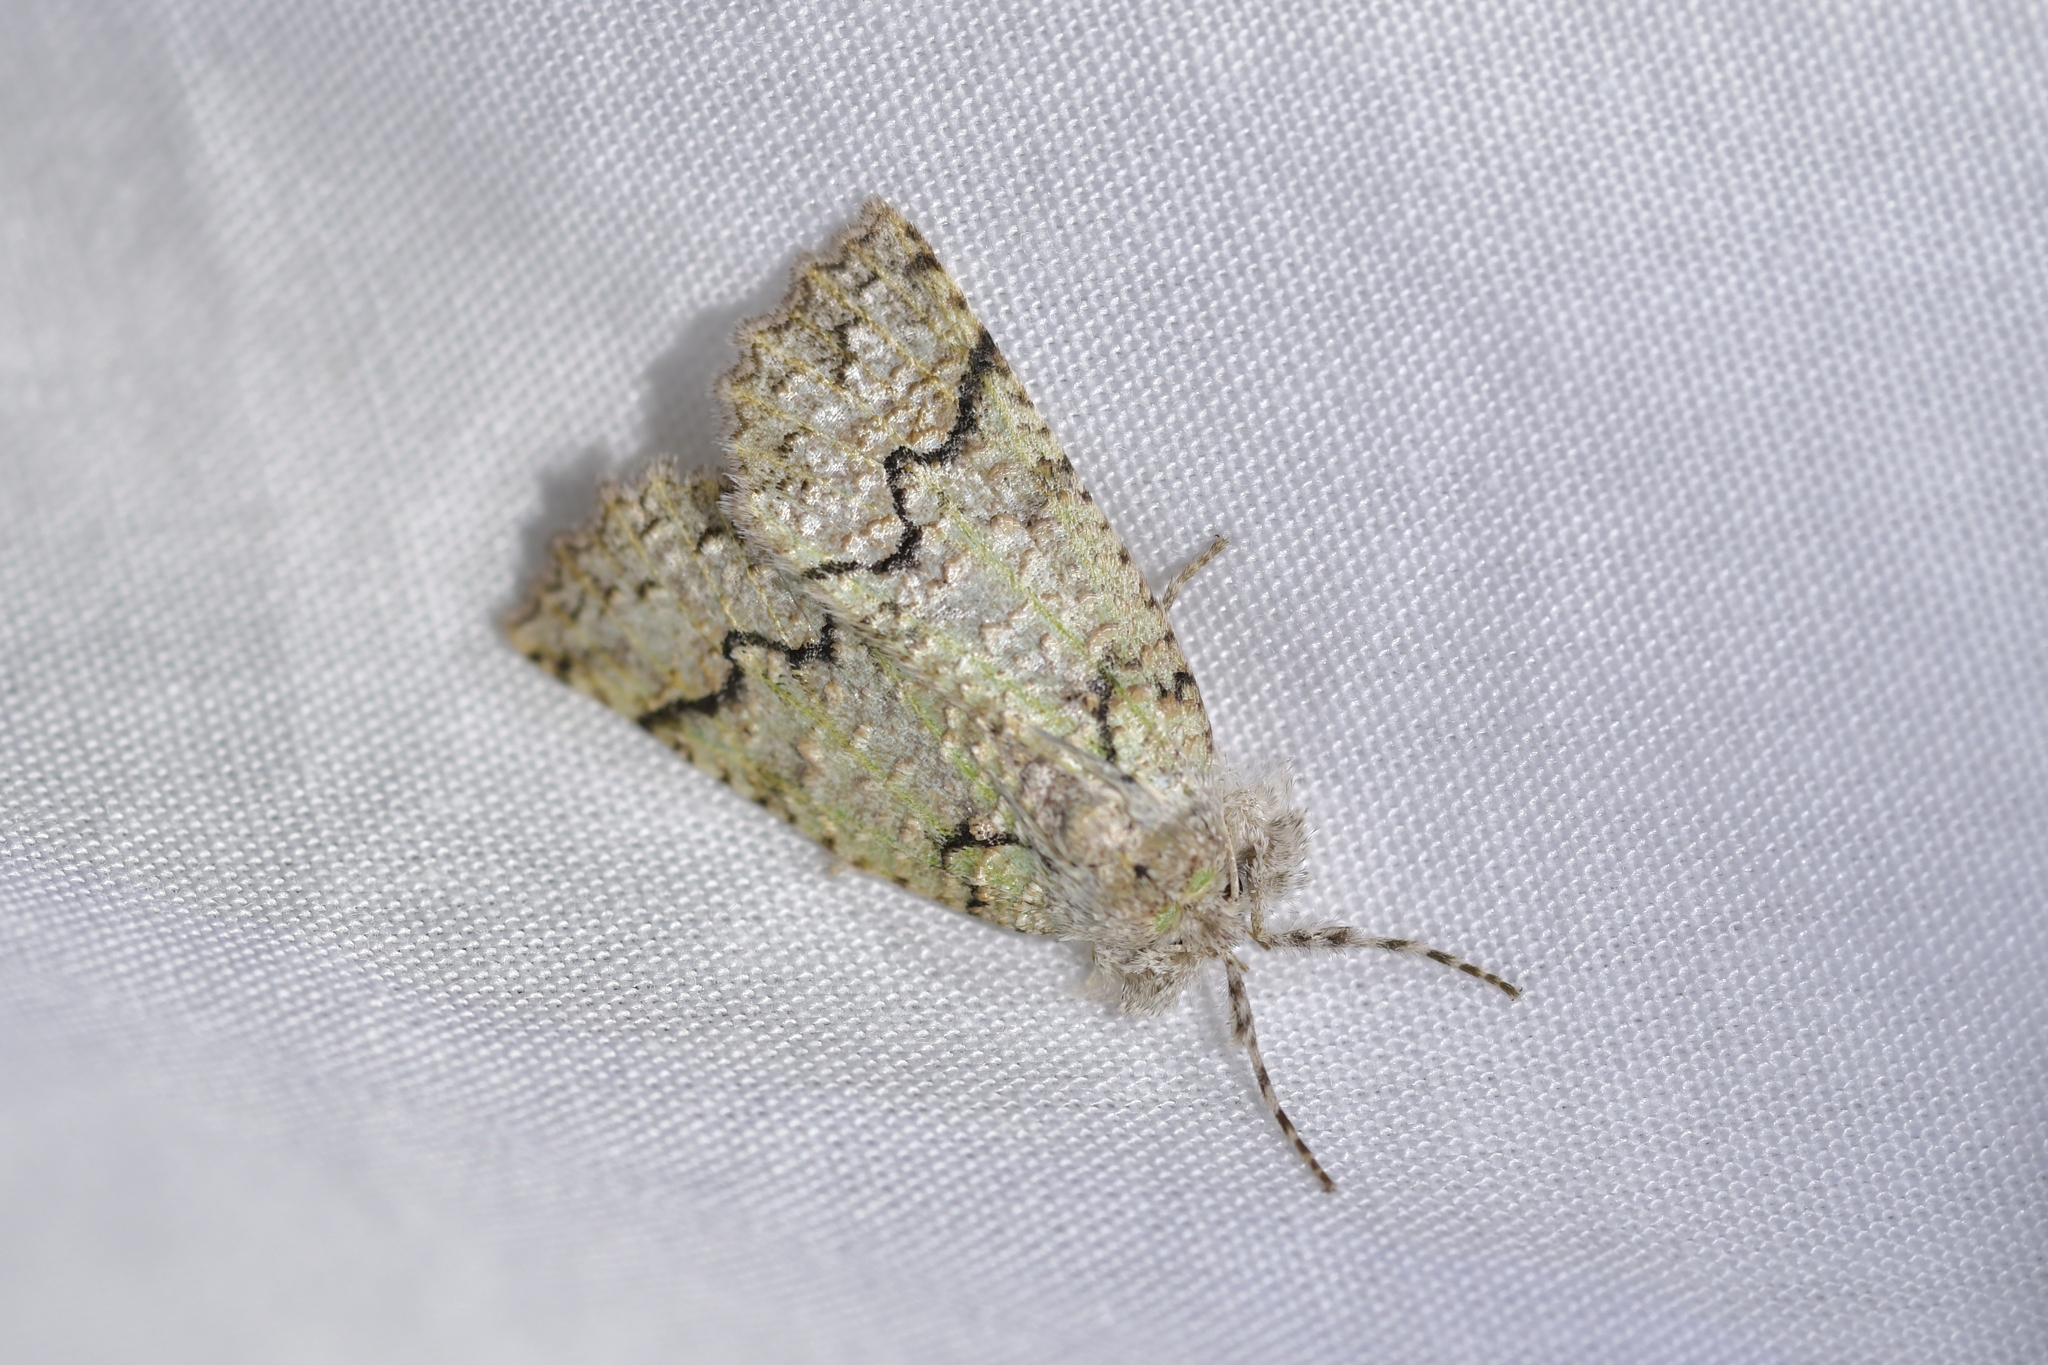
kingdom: Animalia
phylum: Arthropoda
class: Insecta
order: Lepidoptera
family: Geometridae
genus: Declana
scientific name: Declana floccosa
